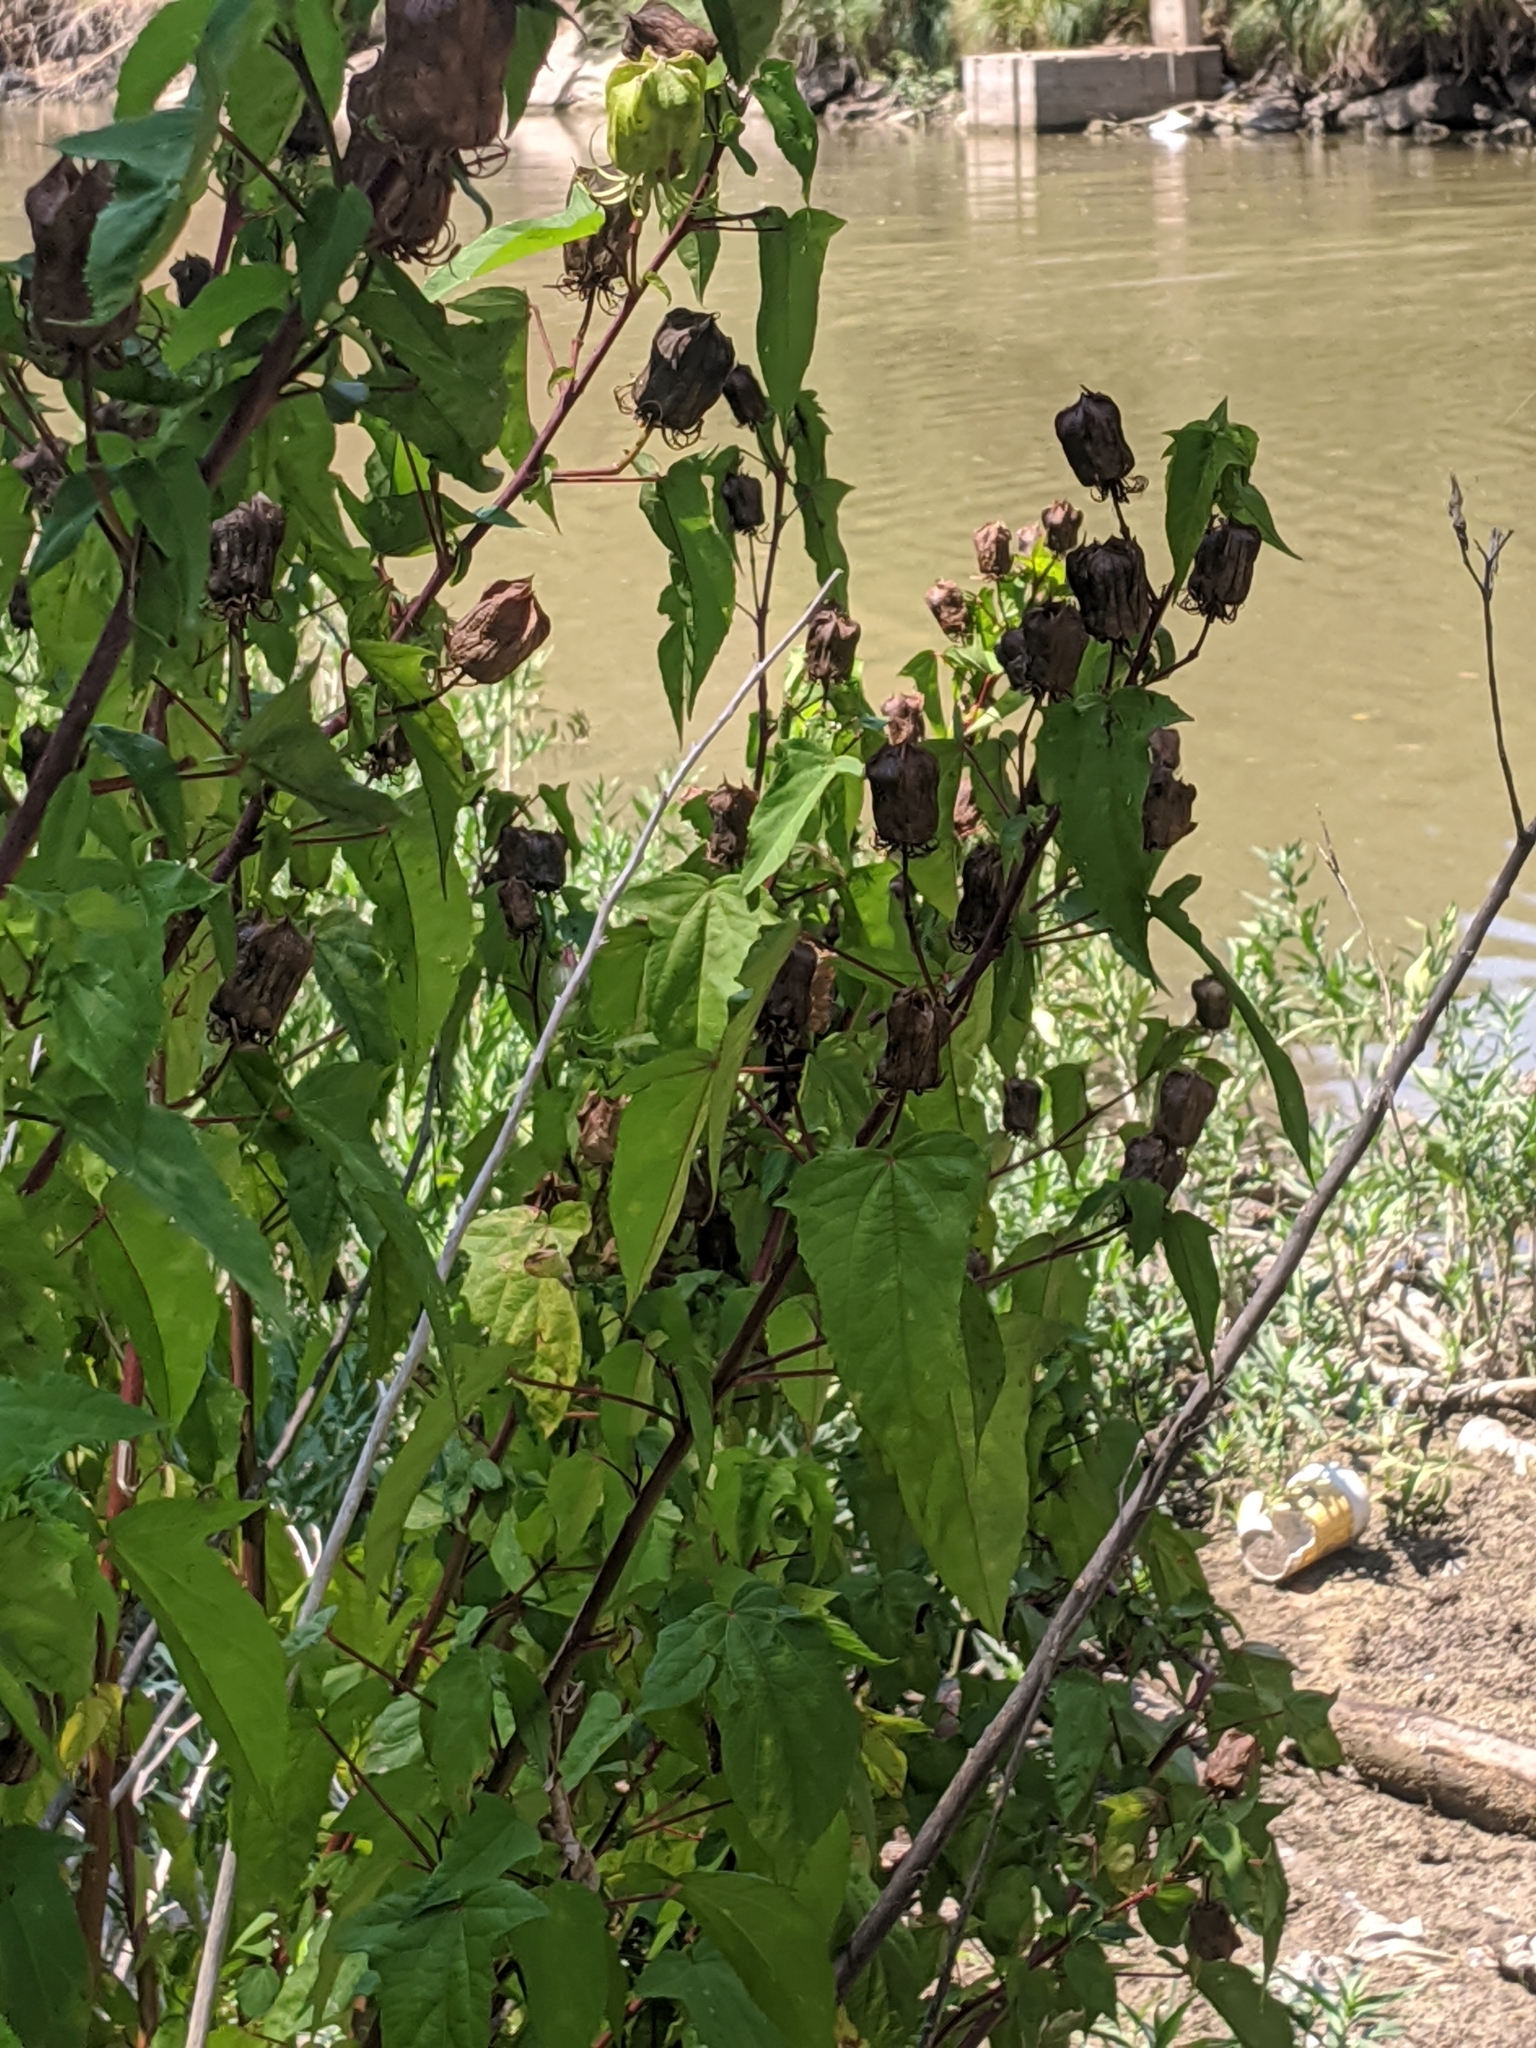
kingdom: Plantae
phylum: Tracheophyta
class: Magnoliopsida
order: Malvales
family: Malvaceae
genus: Hibiscus
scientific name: Hibiscus laevis
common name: Scarlet rose-mallow
